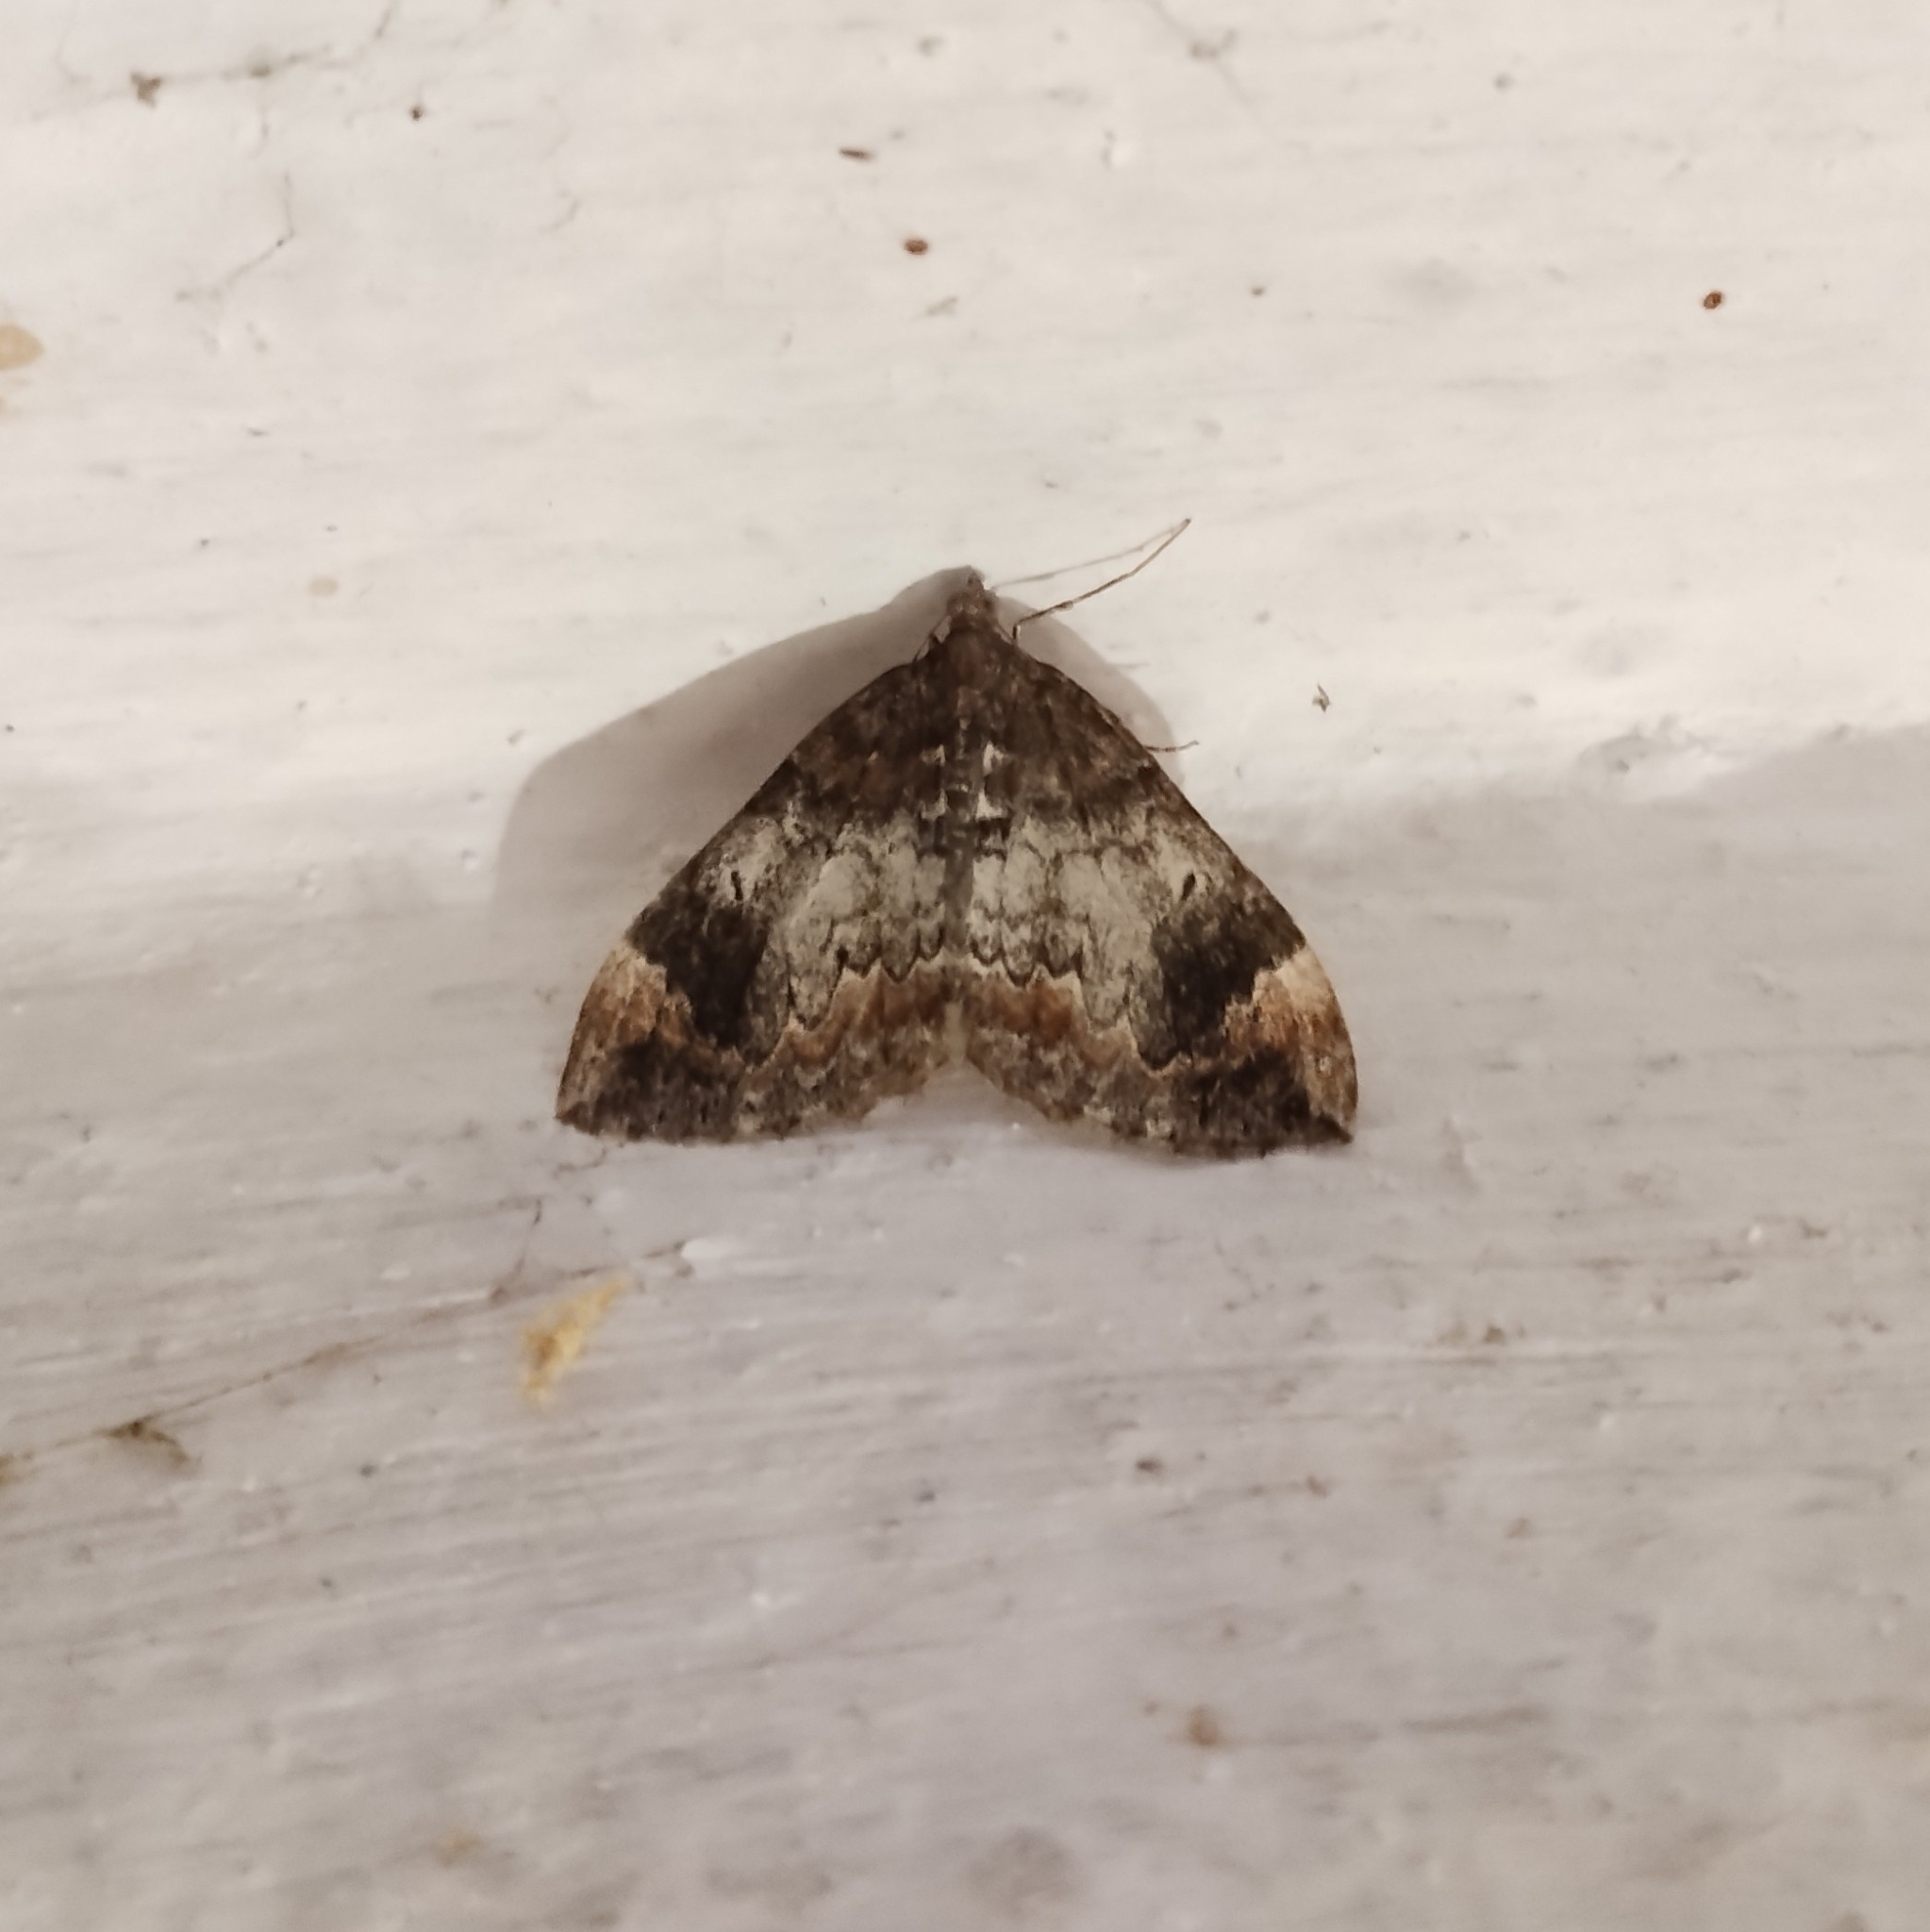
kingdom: Animalia
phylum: Arthropoda
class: Insecta
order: Lepidoptera
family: Geometridae
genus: Dysstroma
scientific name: Dysstroma truncata
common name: Common marbled carpet
